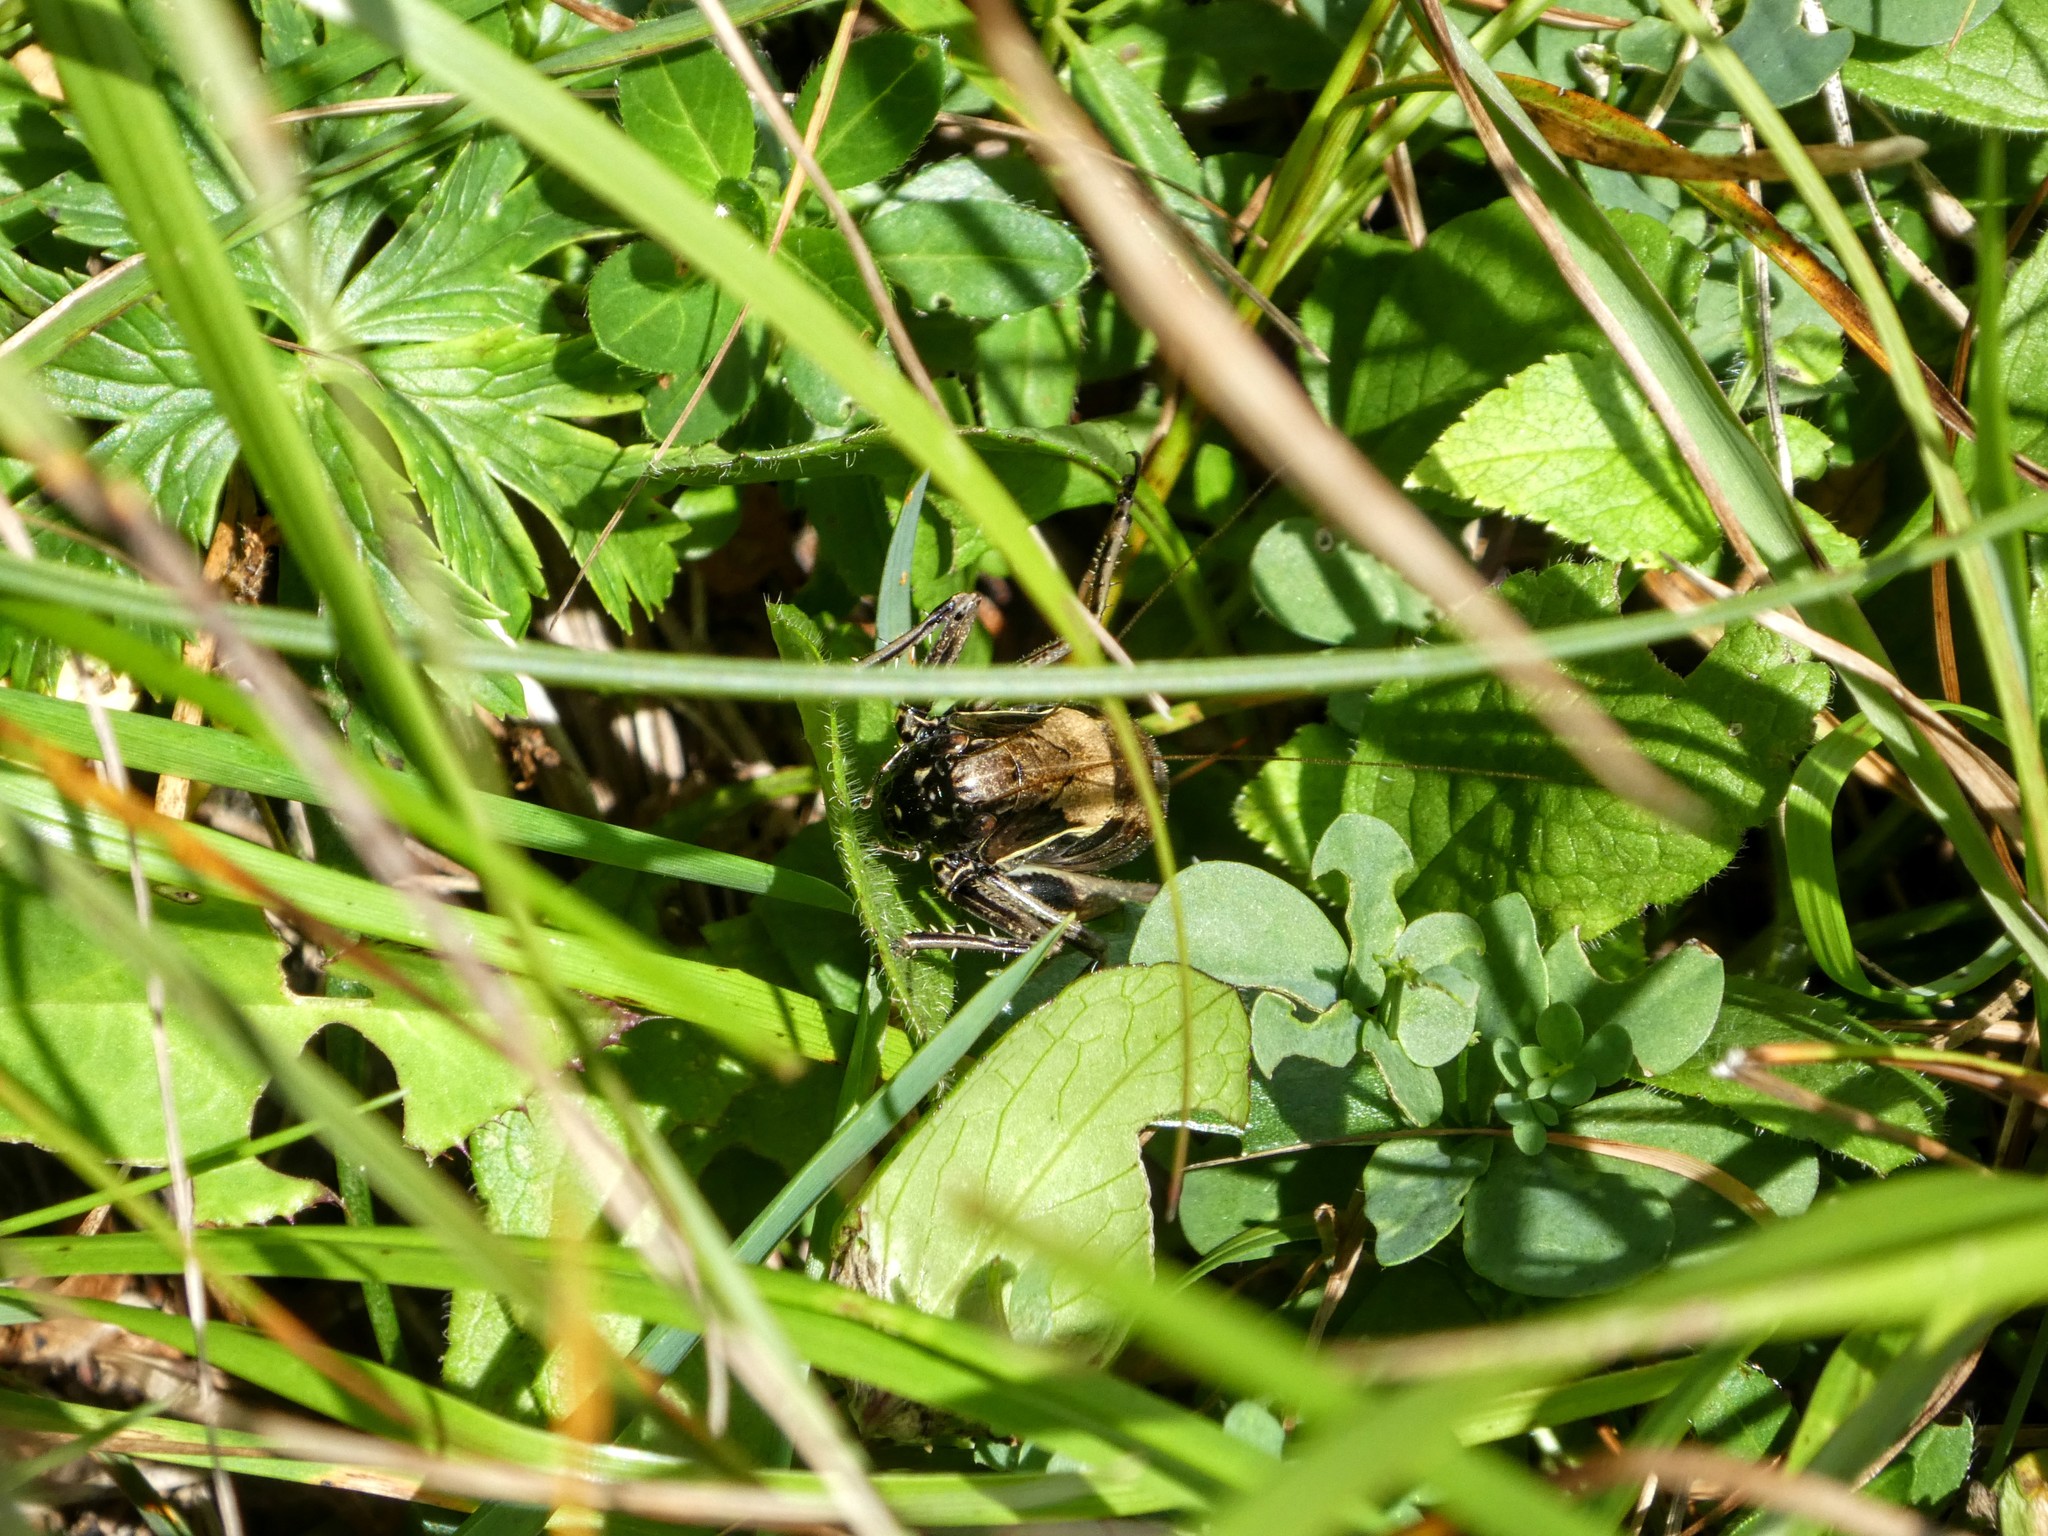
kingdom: Animalia
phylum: Arthropoda
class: Insecta
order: Orthoptera
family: Tettigoniidae
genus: Pholidoptera
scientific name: Pholidoptera aptera
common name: Alpine dark bush-cricket
